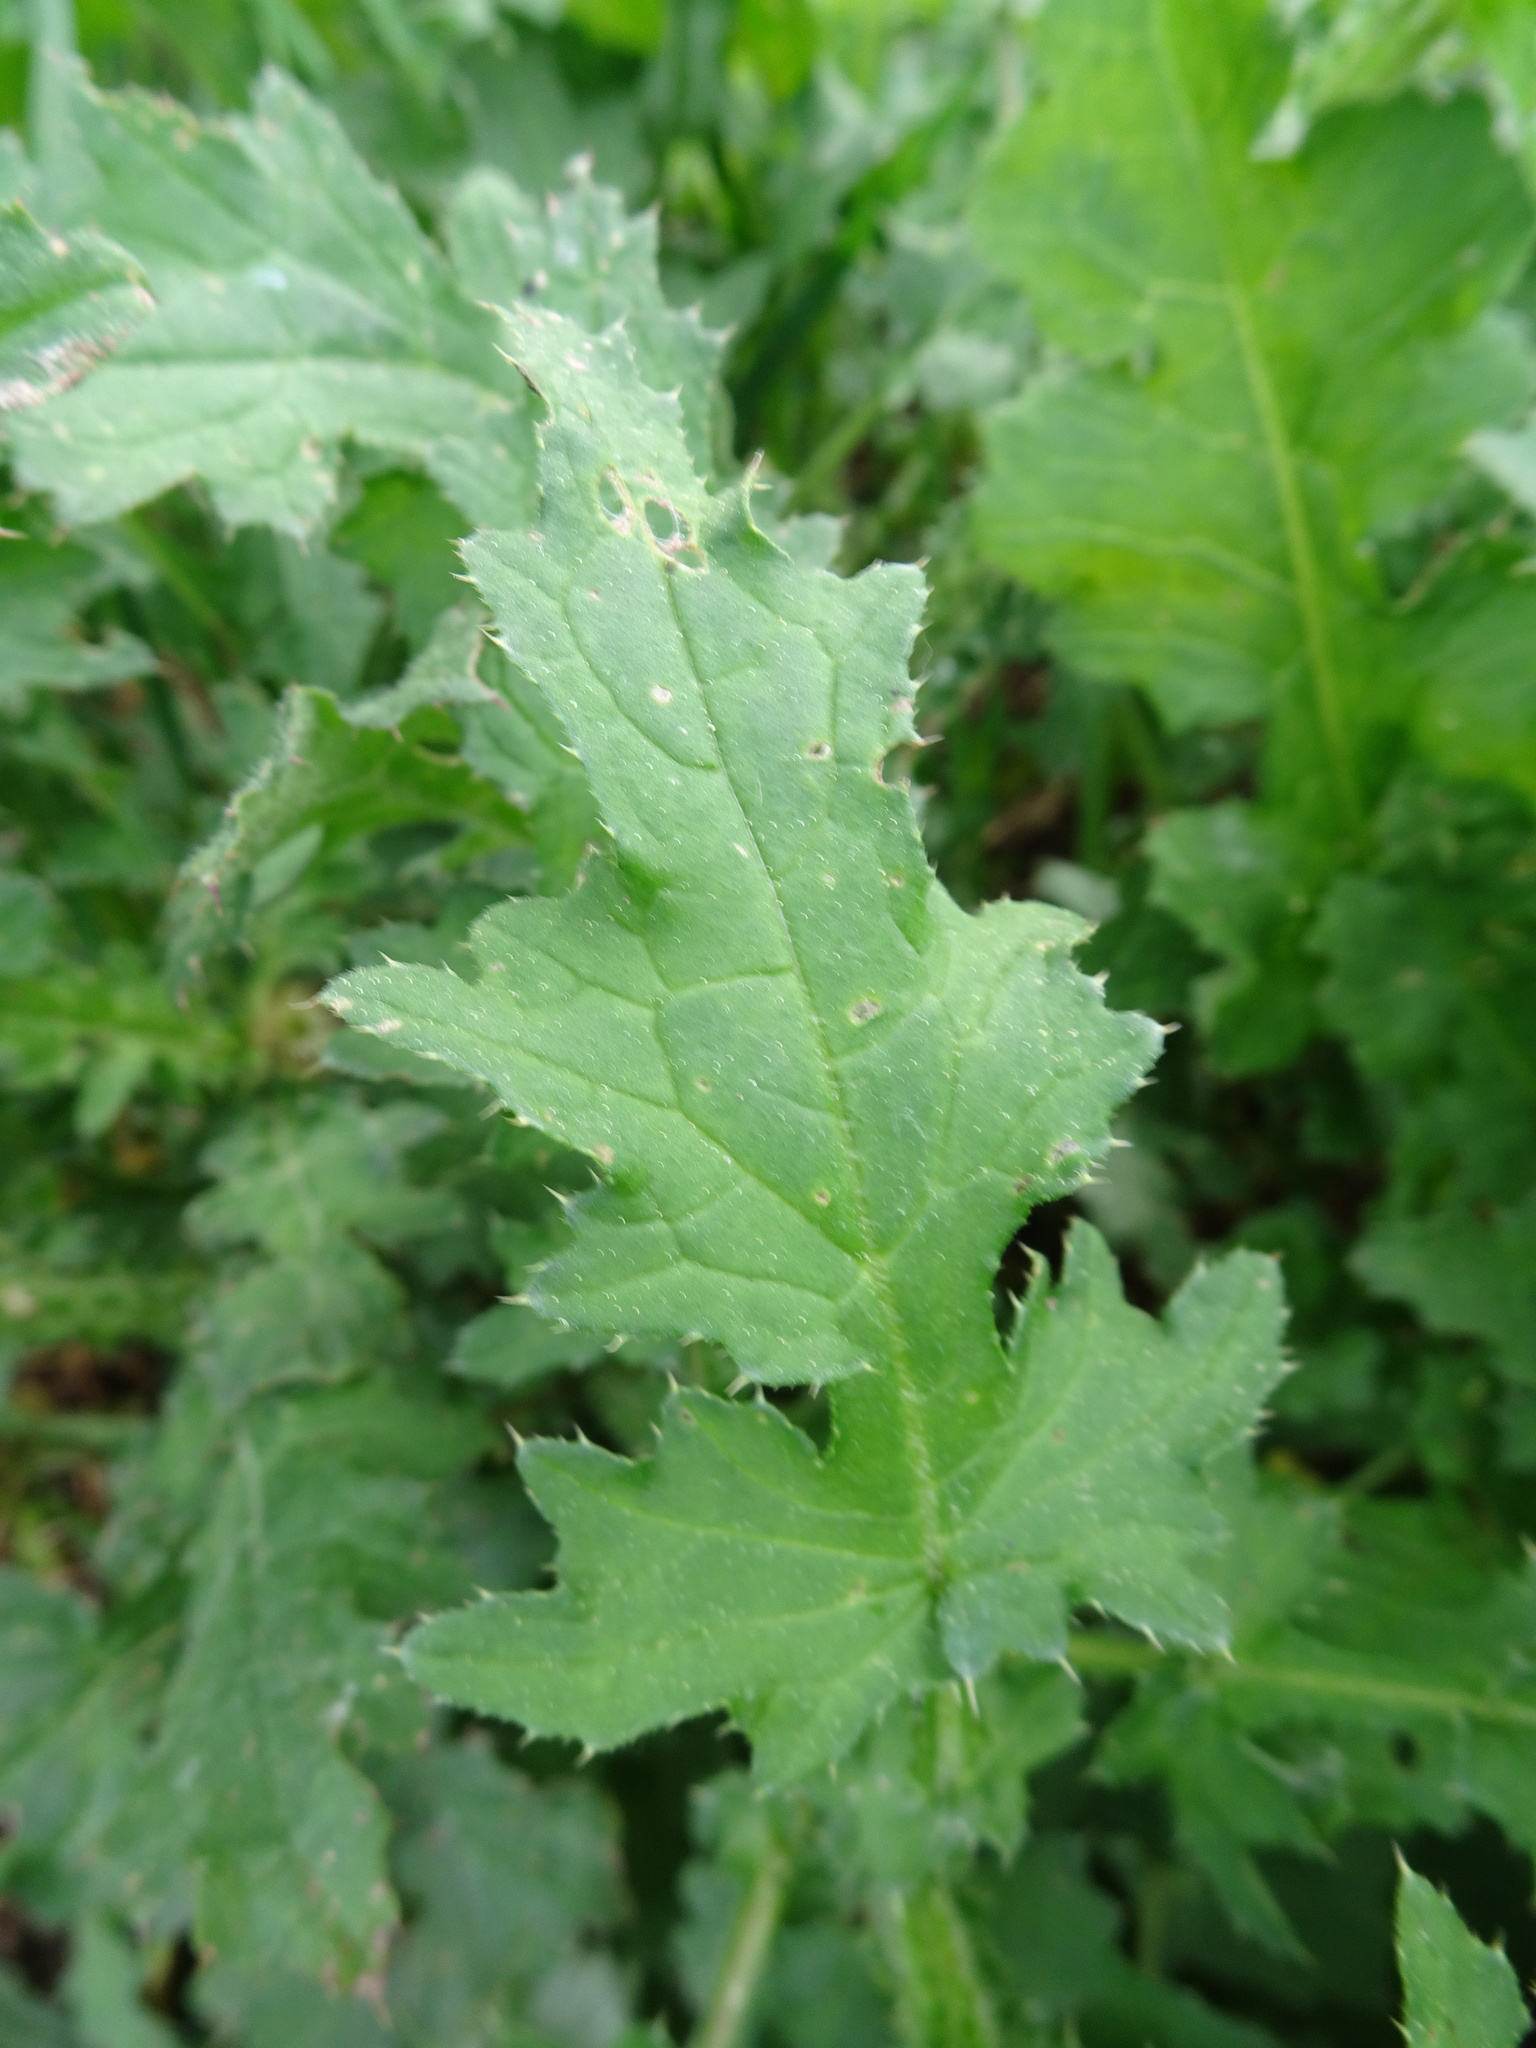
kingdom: Plantae
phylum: Tracheophyta
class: Magnoliopsida
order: Asterales
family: Asteraceae
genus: Carduus
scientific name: Carduus crispus
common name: Welted thistle
